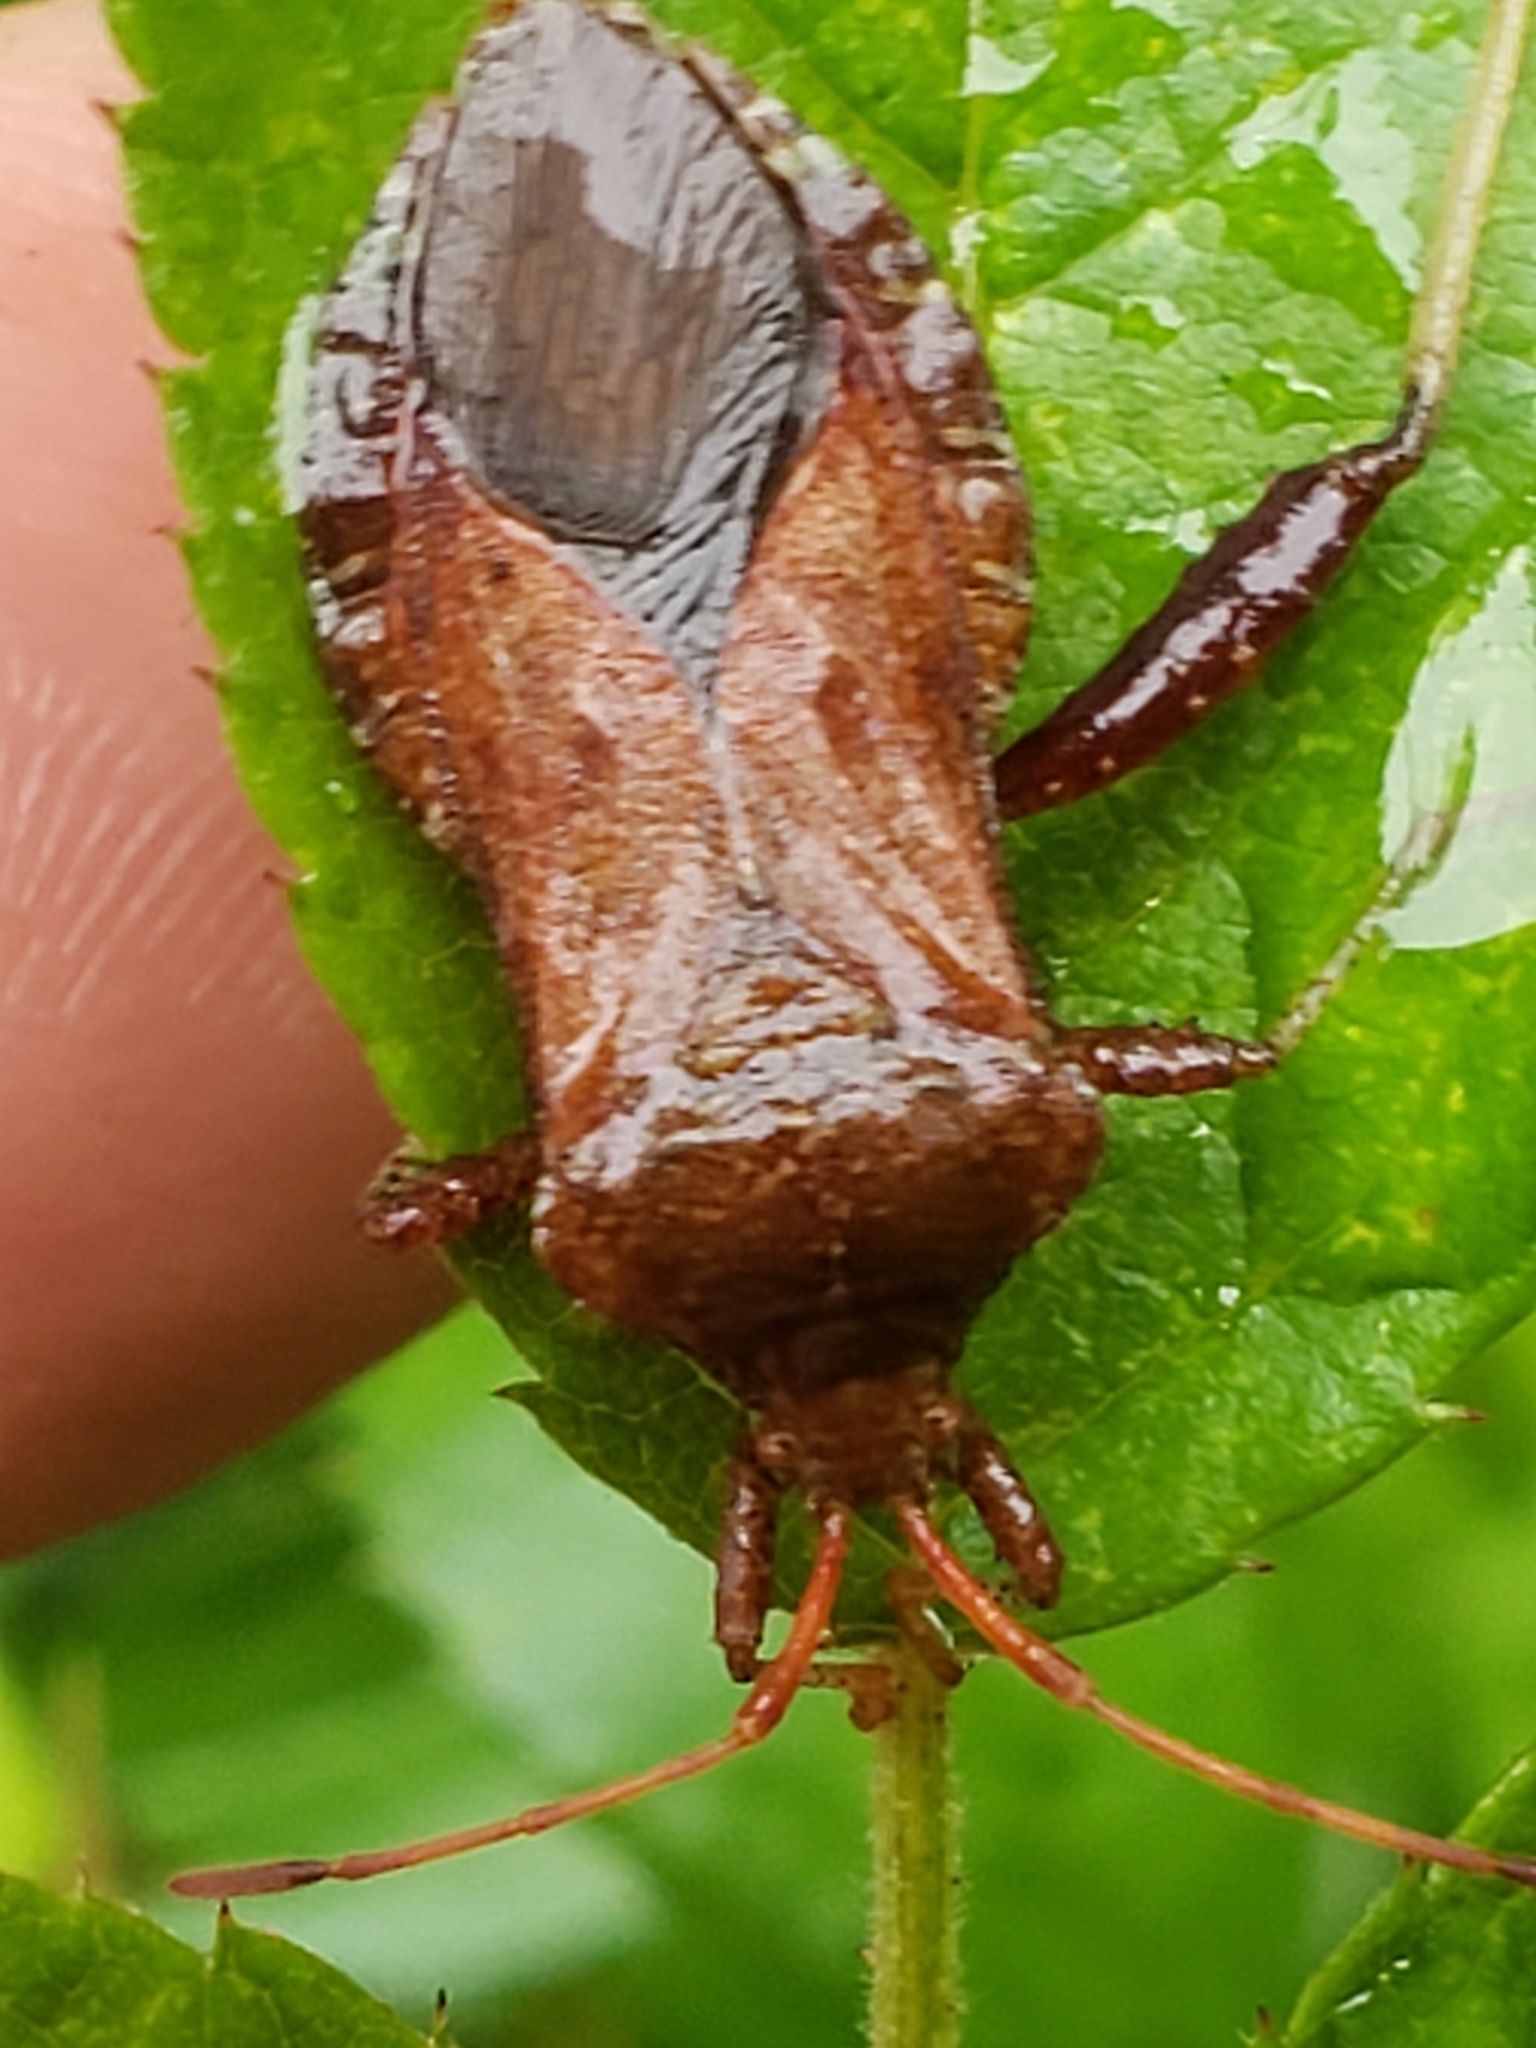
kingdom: Animalia
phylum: Arthropoda
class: Insecta
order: Hemiptera
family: Coreidae
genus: Euthochtha
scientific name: Euthochtha galeator
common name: Helmeted squash bug
